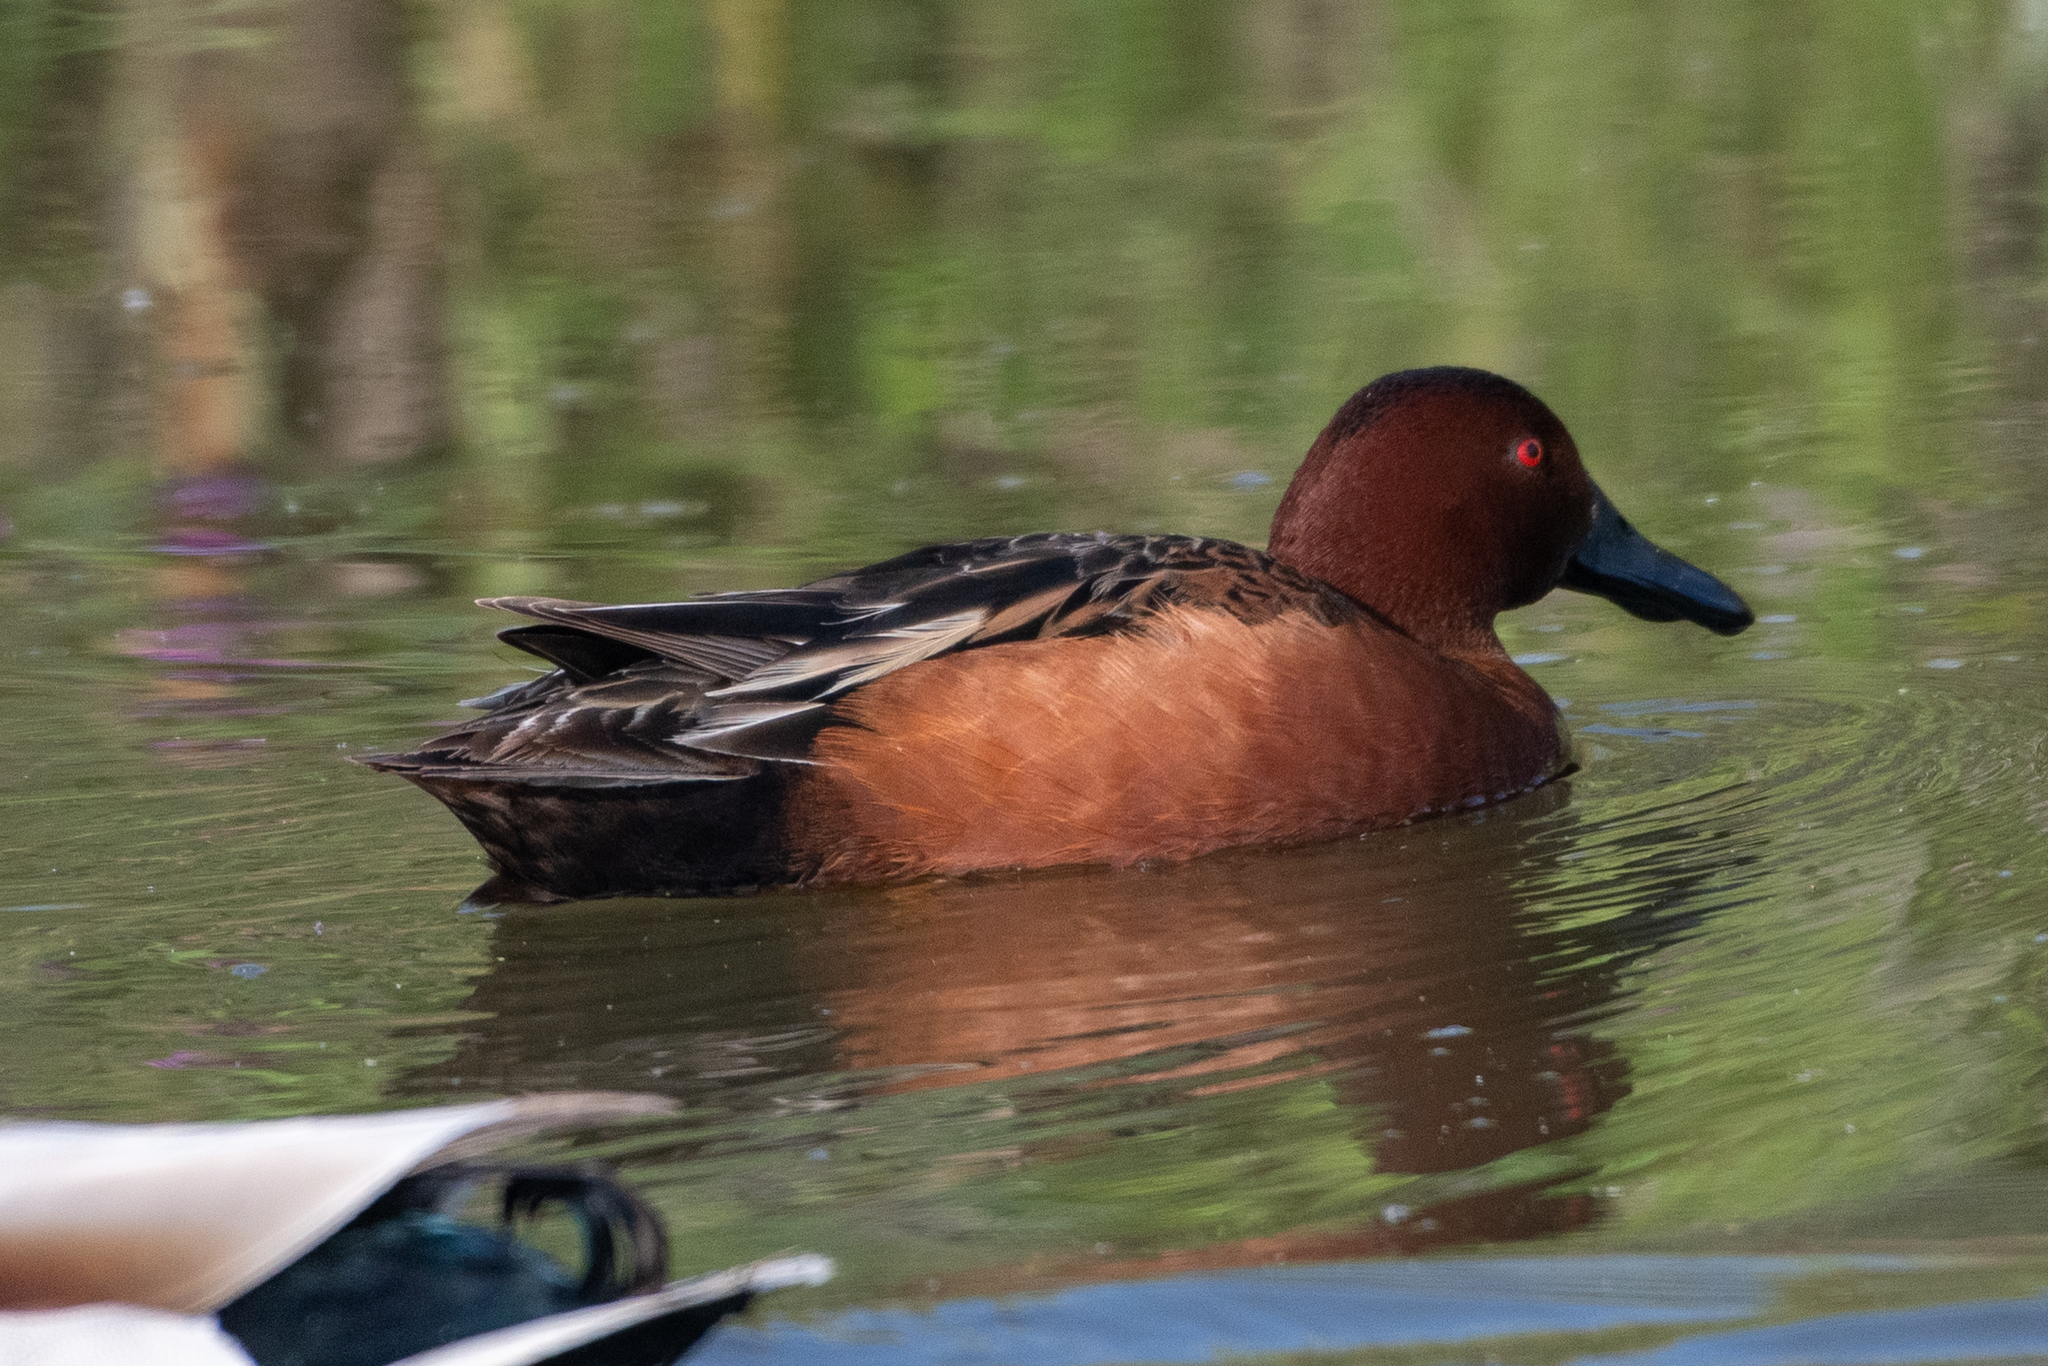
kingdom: Animalia
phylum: Chordata
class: Aves
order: Anseriformes
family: Anatidae
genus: Spatula
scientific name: Spatula cyanoptera
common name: Cinnamon teal
